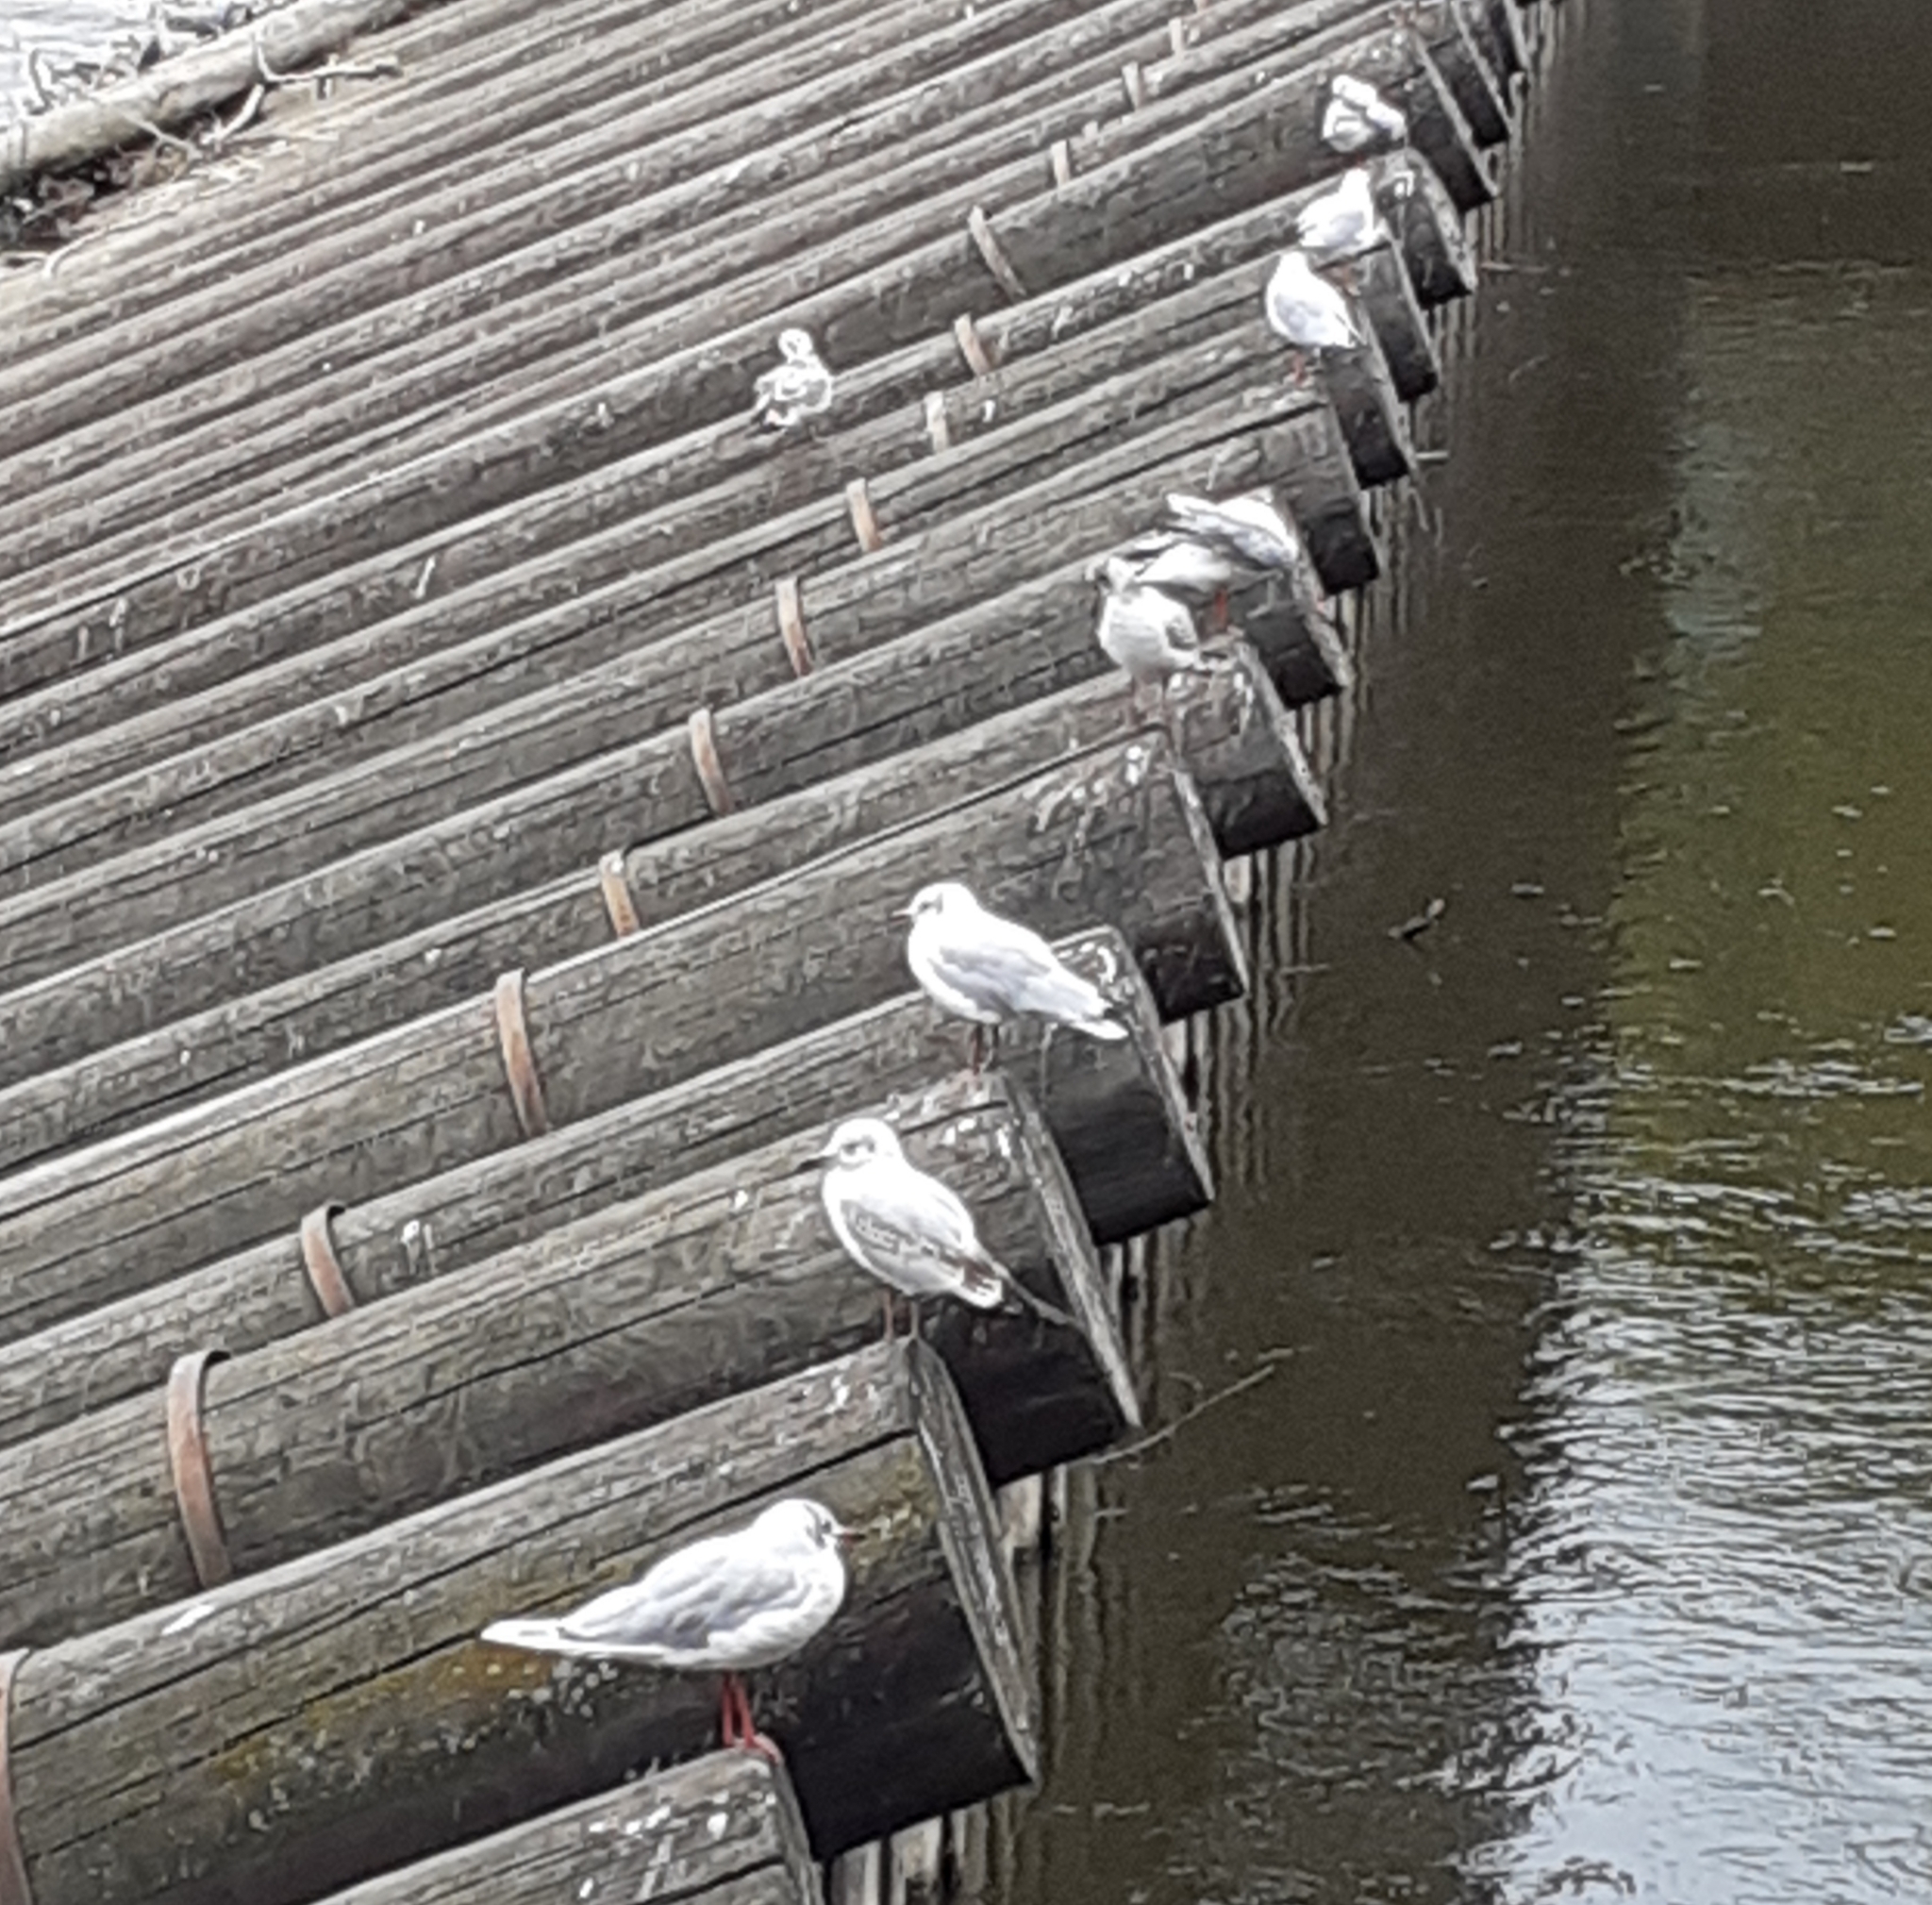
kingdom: Animalia
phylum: Chordata
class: Aves
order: Charadriiformes
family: Laridae
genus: Chroicocephalus
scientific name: Chroicocephalus ridibundus
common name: Black-headed gull
